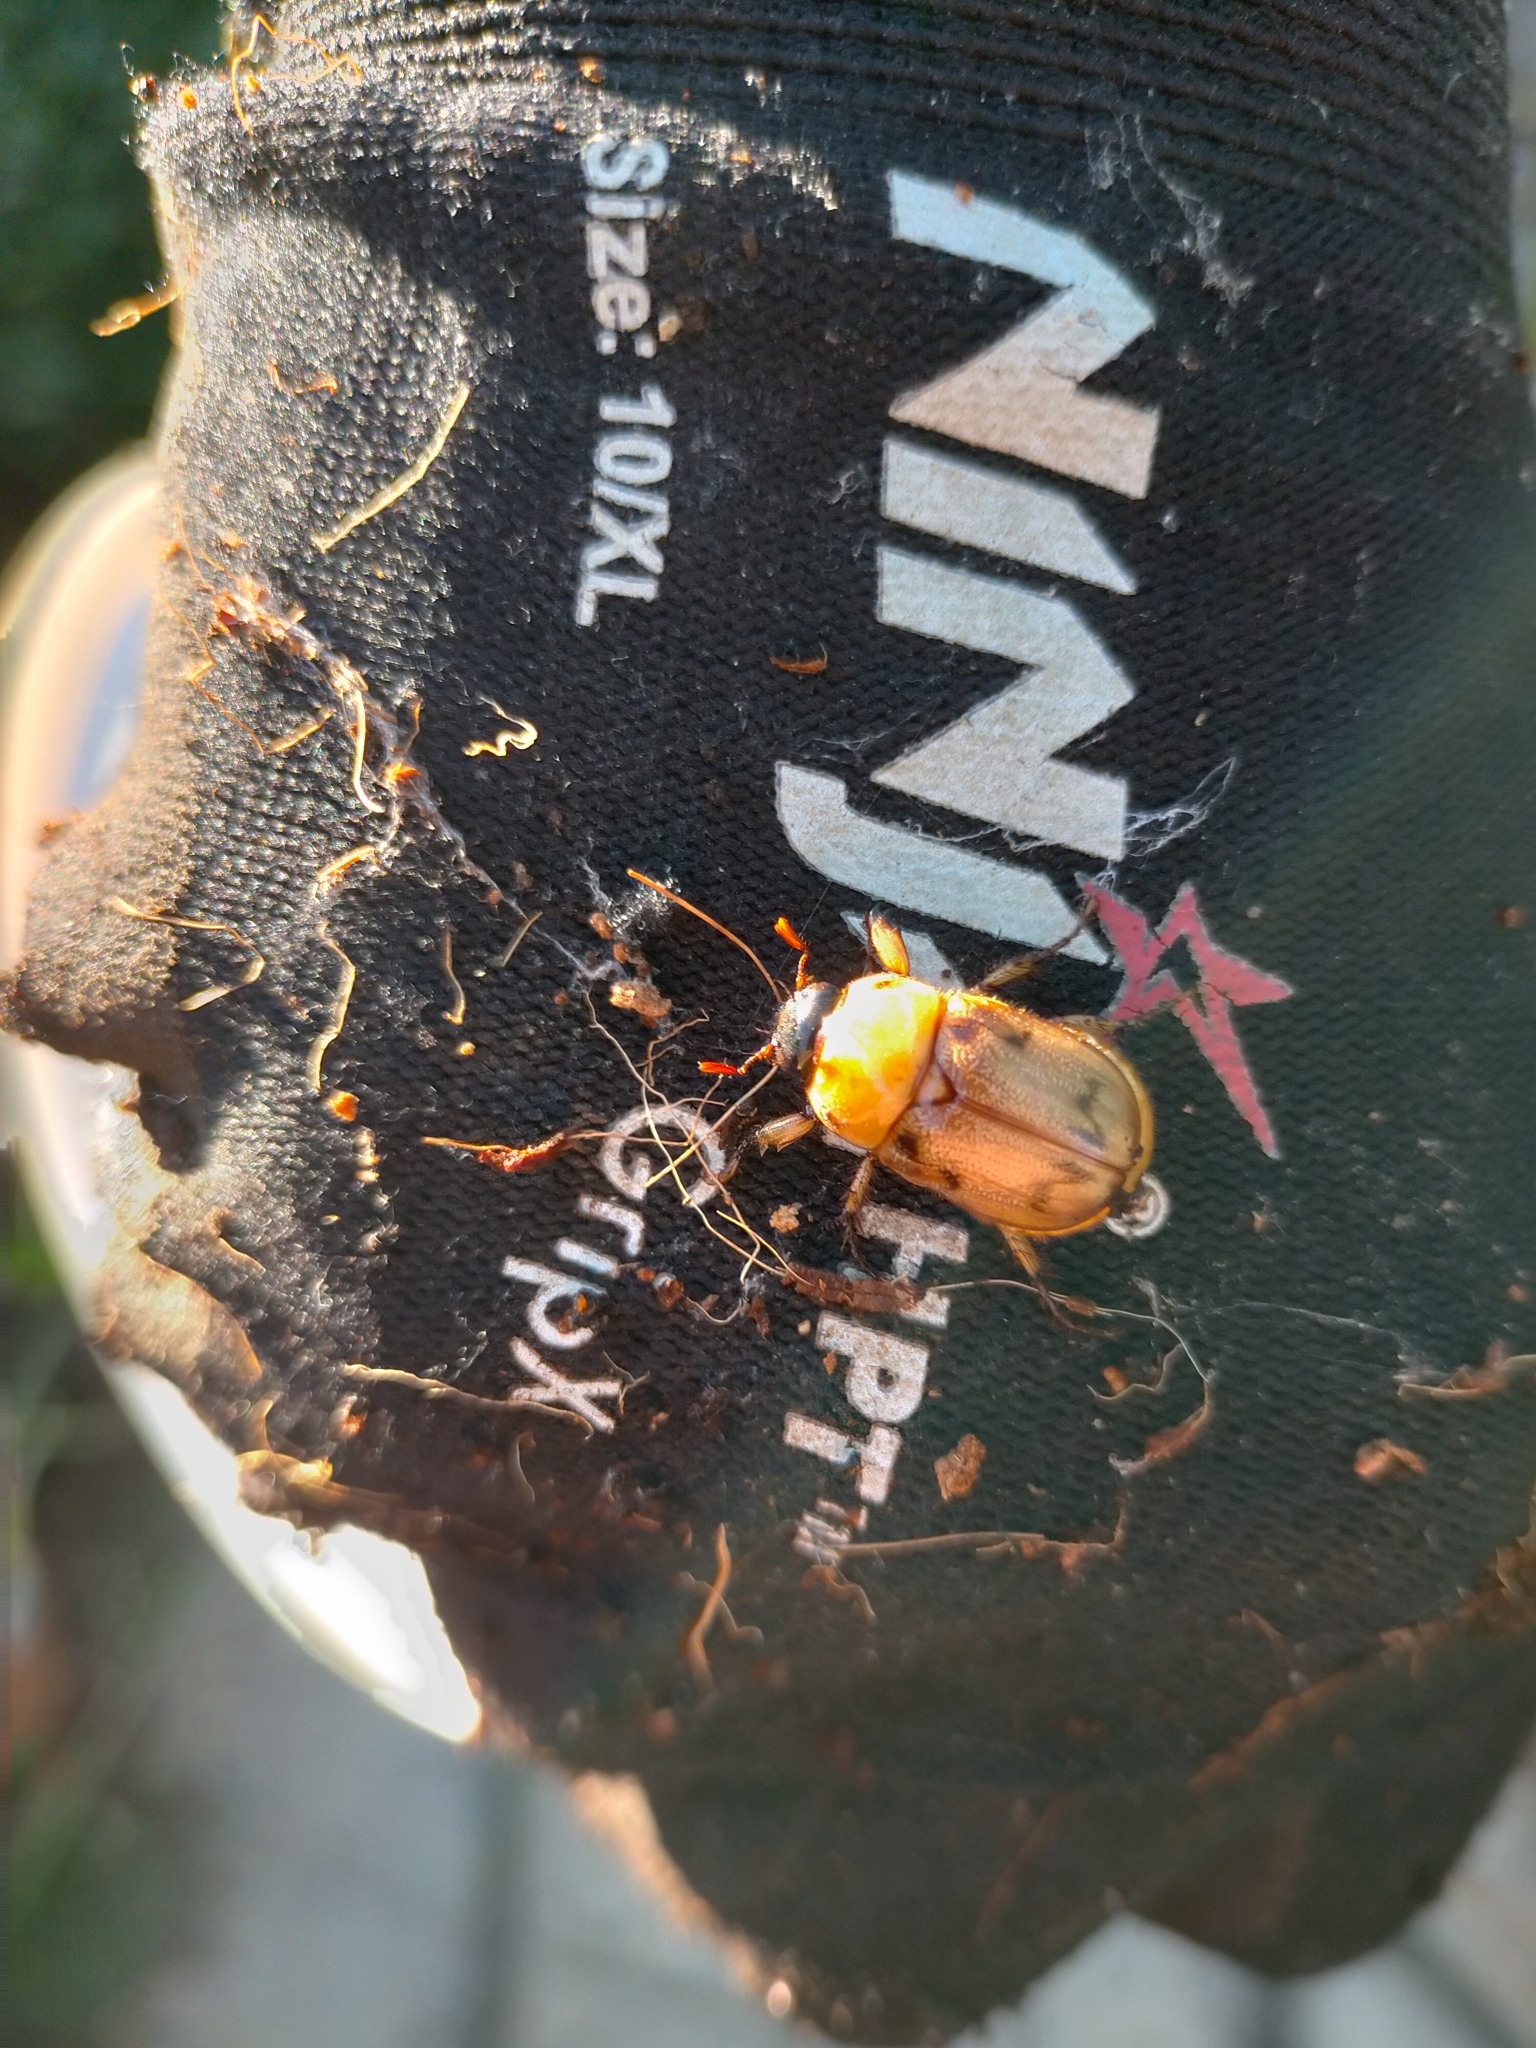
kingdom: Animalia
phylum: Arthropoda
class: Insecta
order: Coleoptera
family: Scarabaeidae
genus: Cyclocephala
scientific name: Cyclocephala signaticollis
